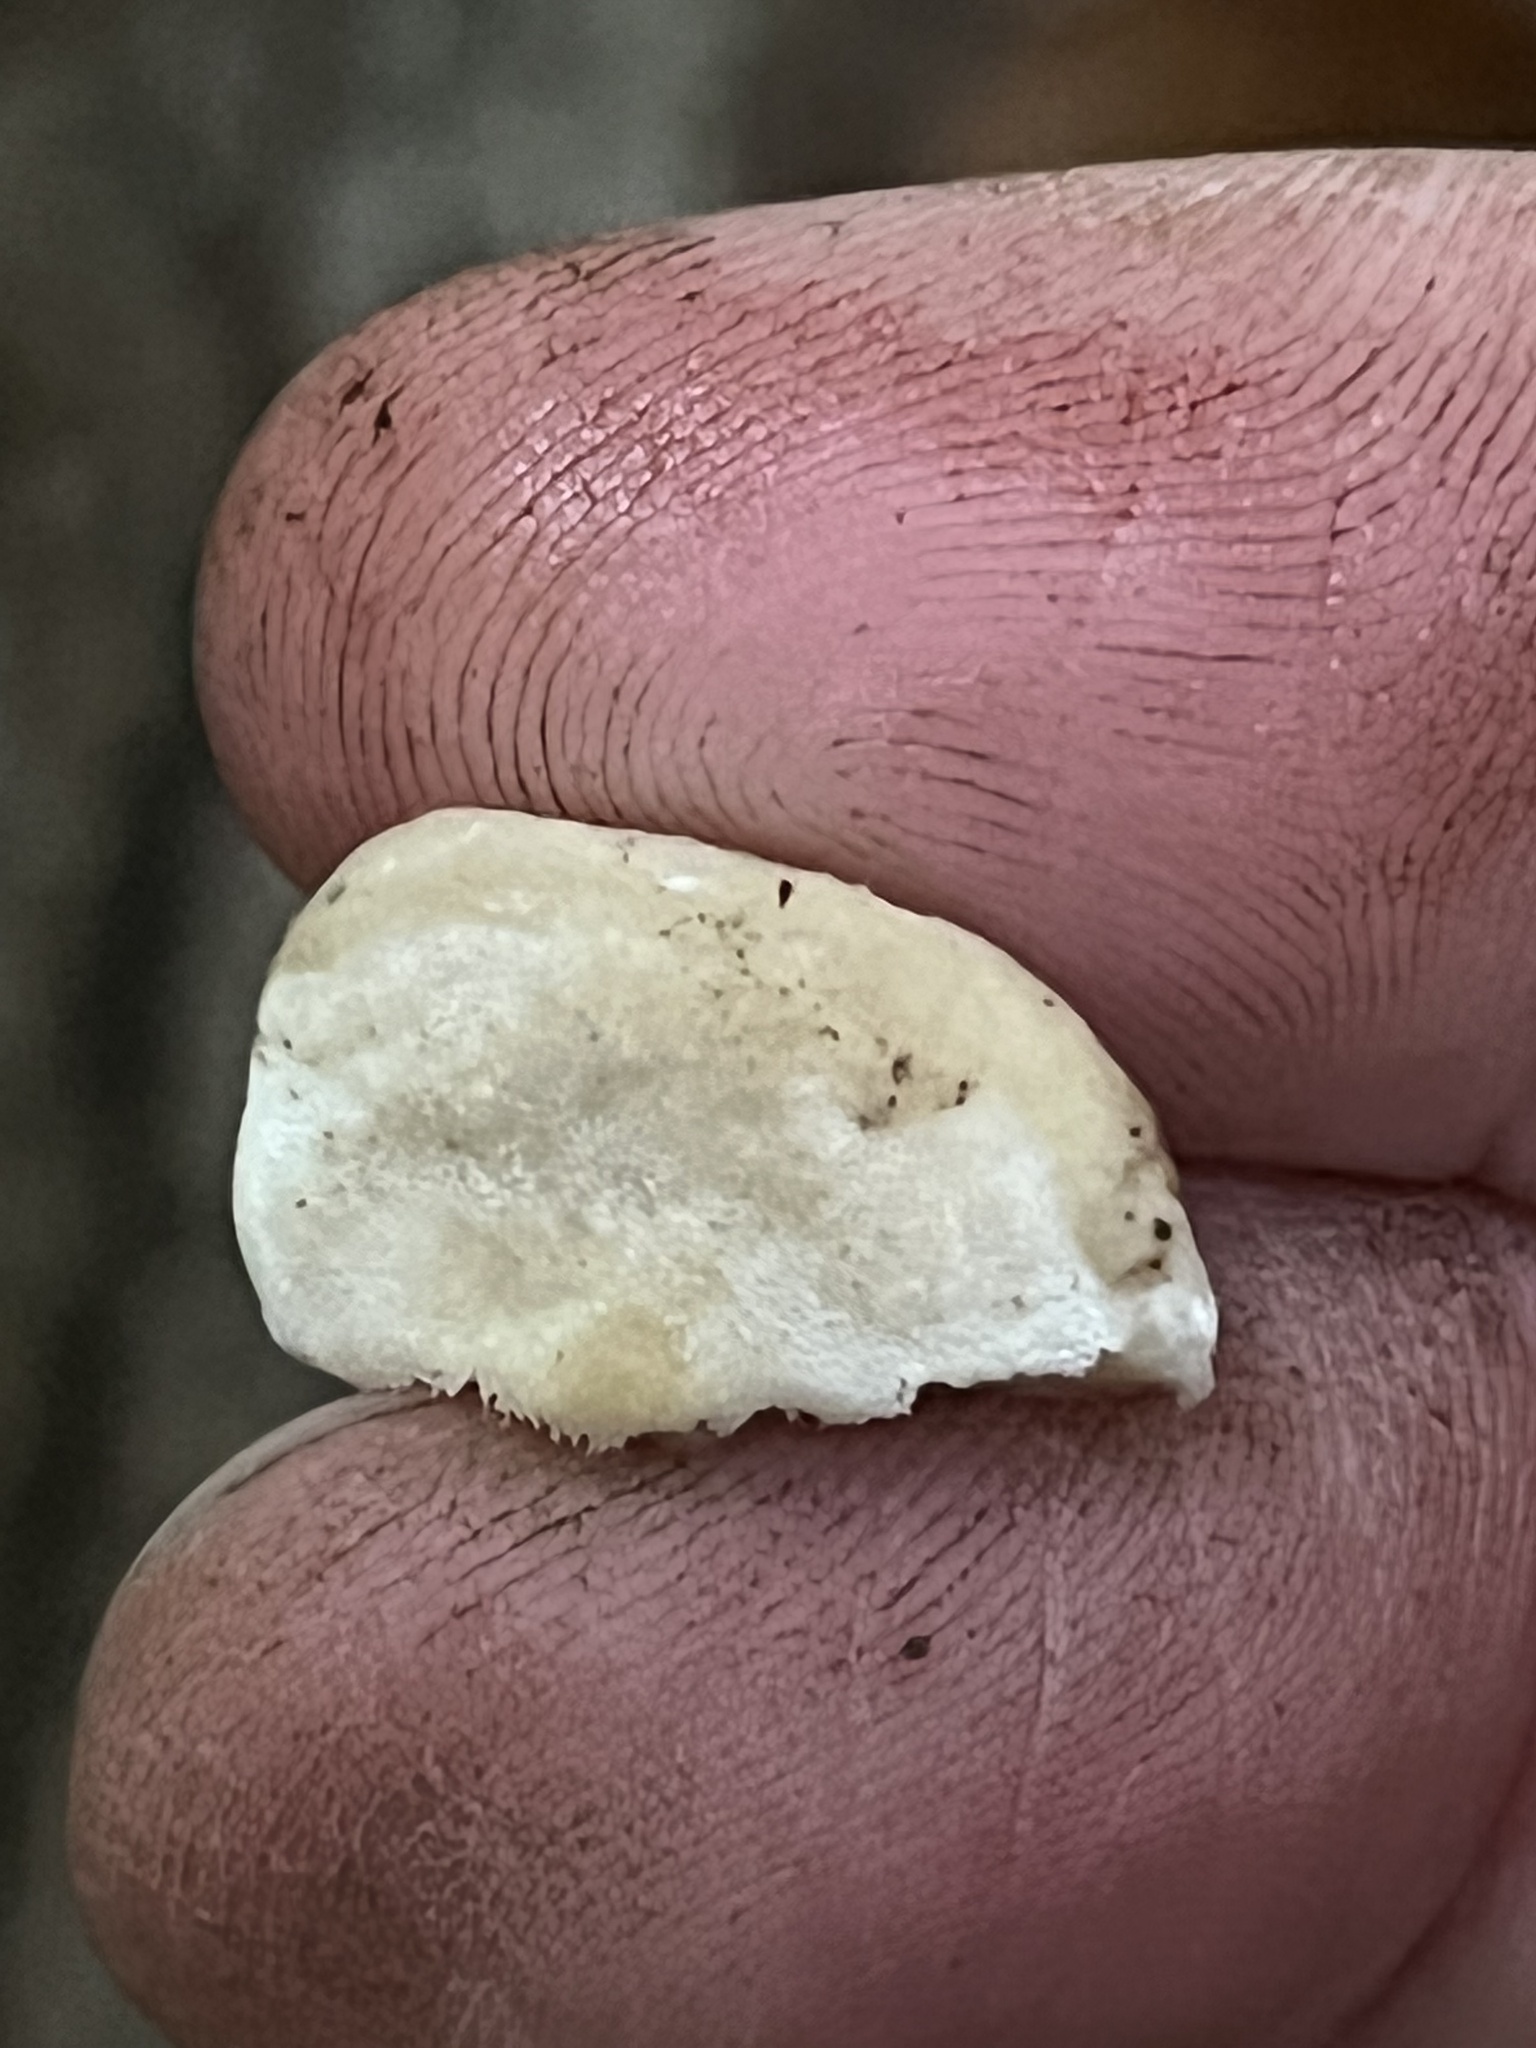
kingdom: Fungi
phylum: Basidiomycota
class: Agaricomycetes
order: Hymenochaetales
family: Oxyporaceae
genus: Oxyporus
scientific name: Oxyporus populinus
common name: Poplar bracket
